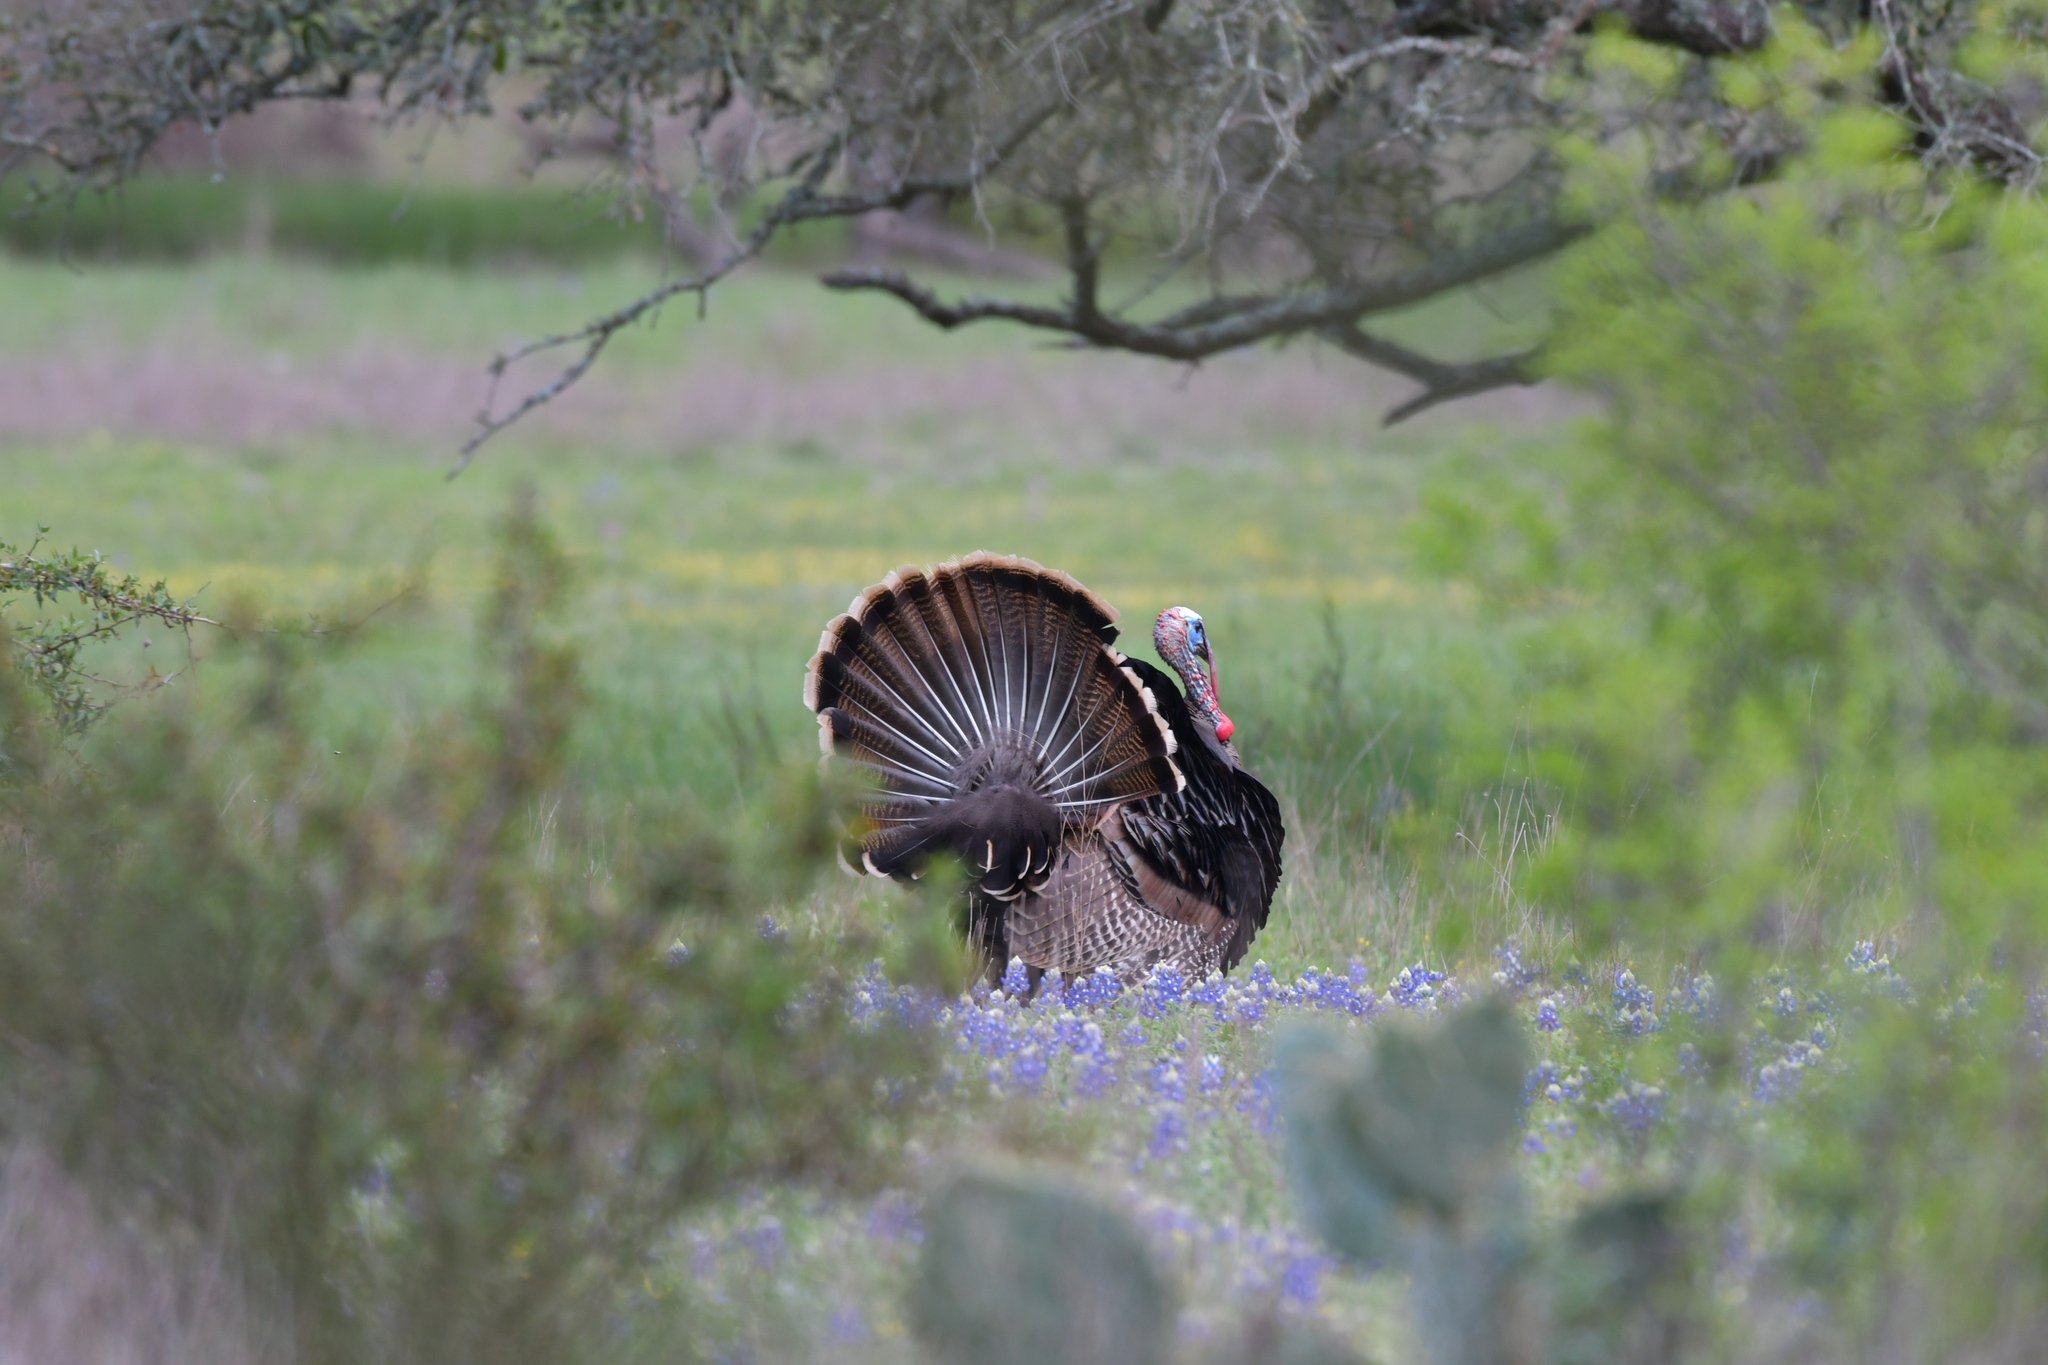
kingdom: Animalia
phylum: Chordata
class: Aves
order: Galliformes
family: Phasianidae
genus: Meleagris
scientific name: Meleagris gallopavo
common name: Wild turkey
